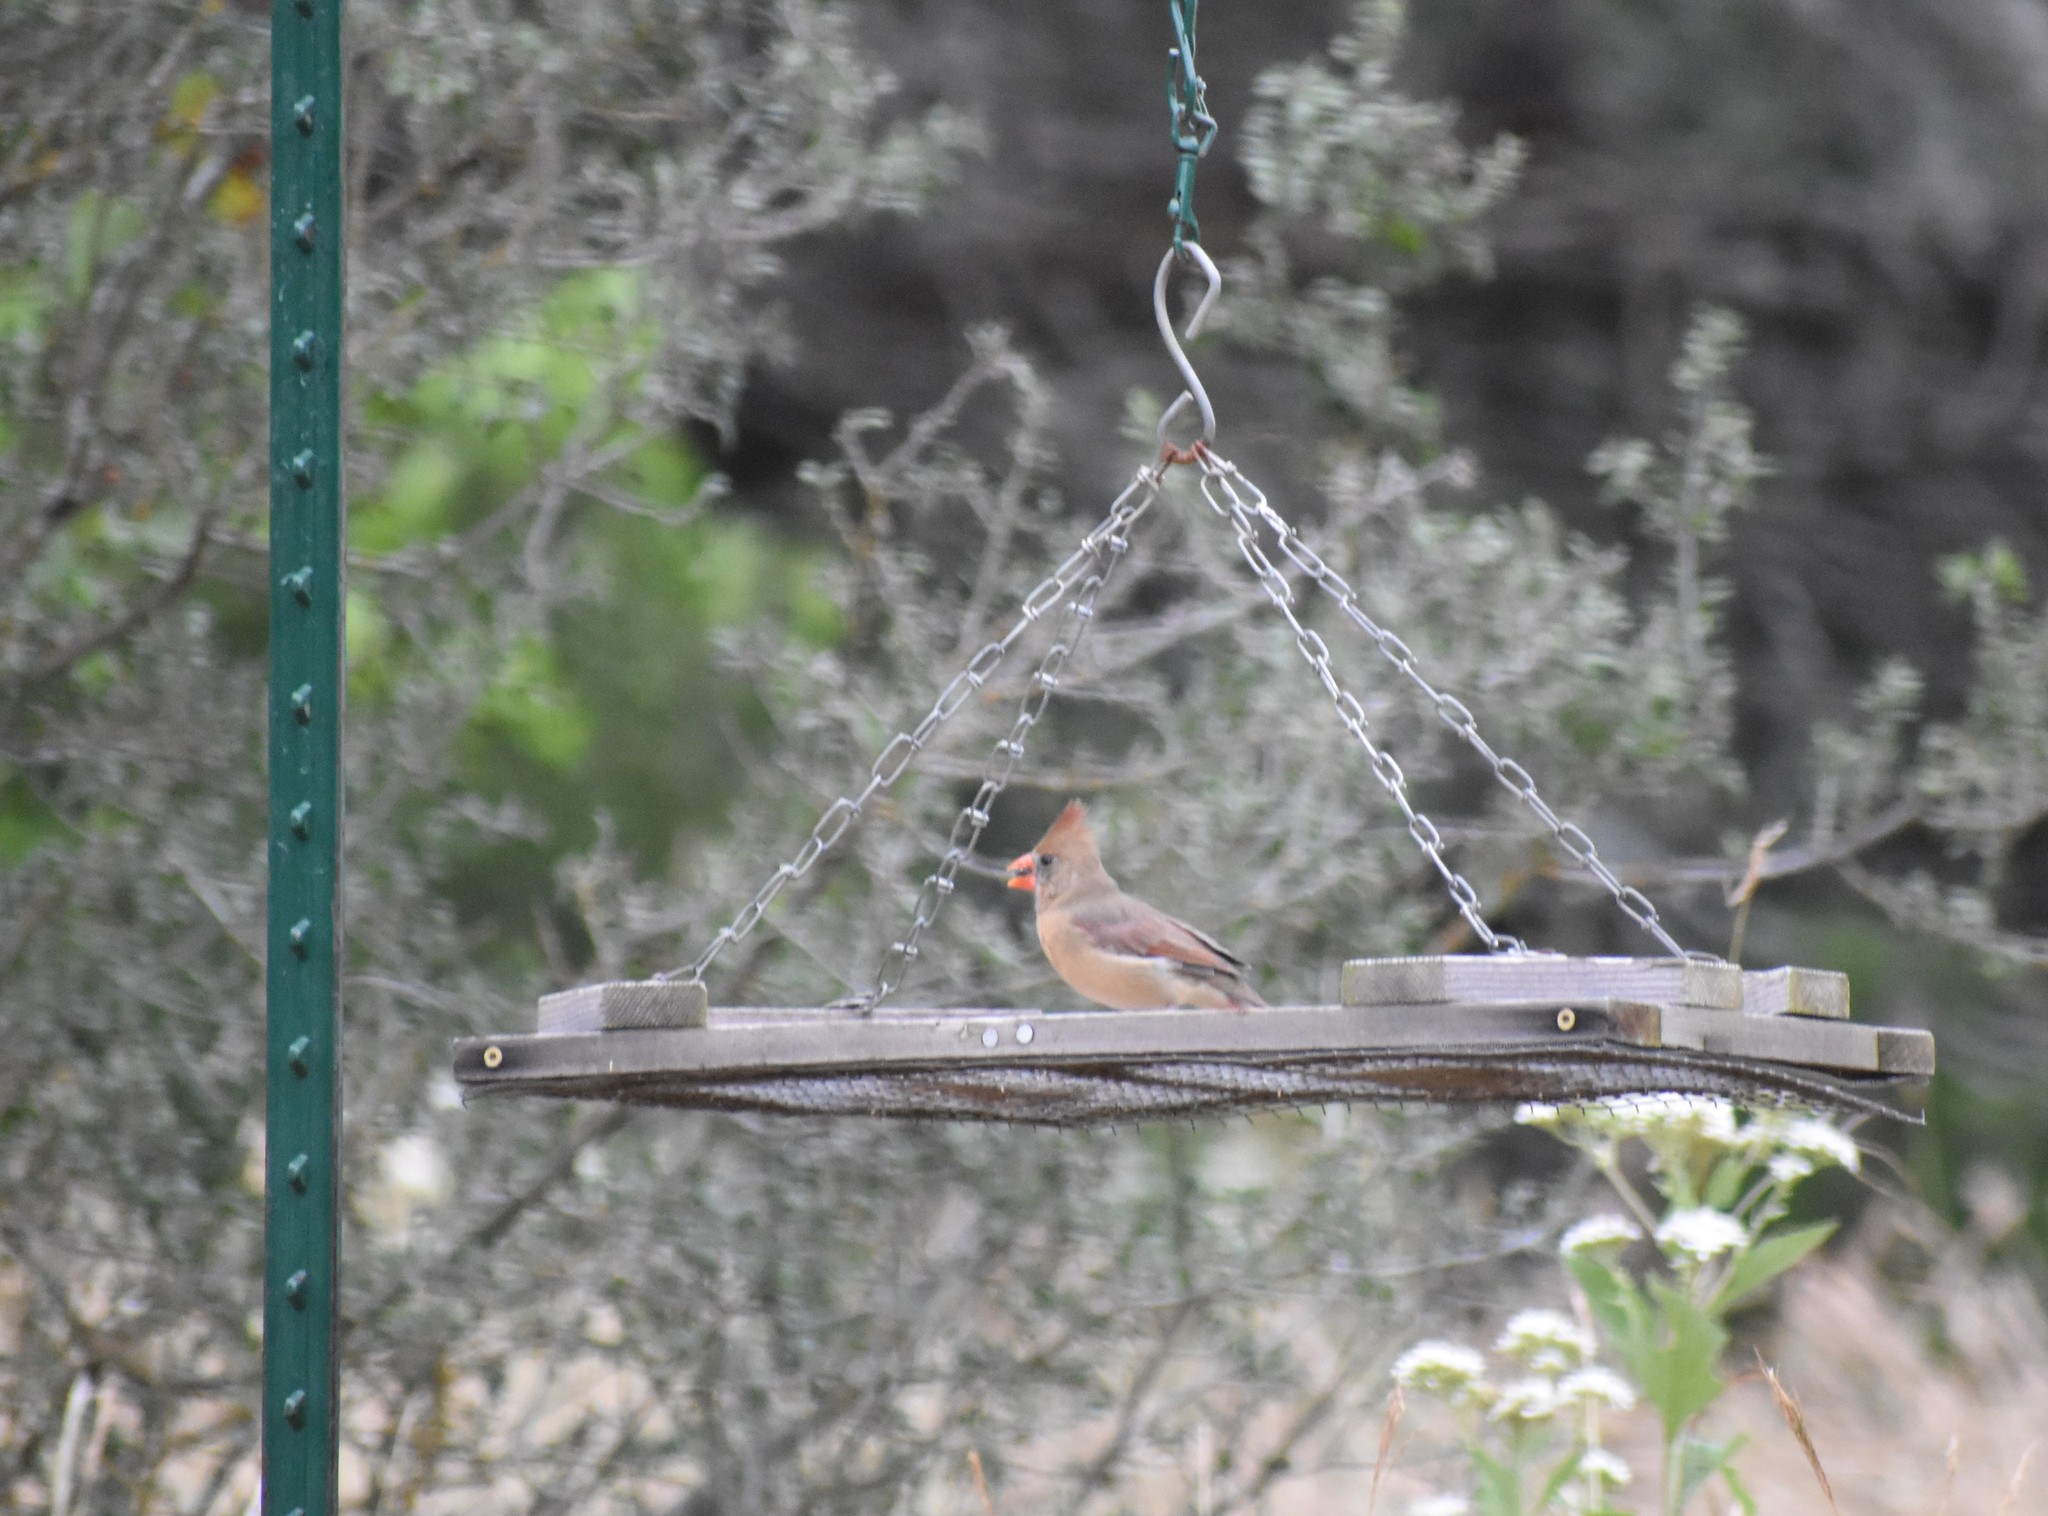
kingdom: Animalia
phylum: Chordata
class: Aves
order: Passeriformes
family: Cardinalidae
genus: Cardinalis
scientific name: Cardinalis cardinalis
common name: Northern cardinal
